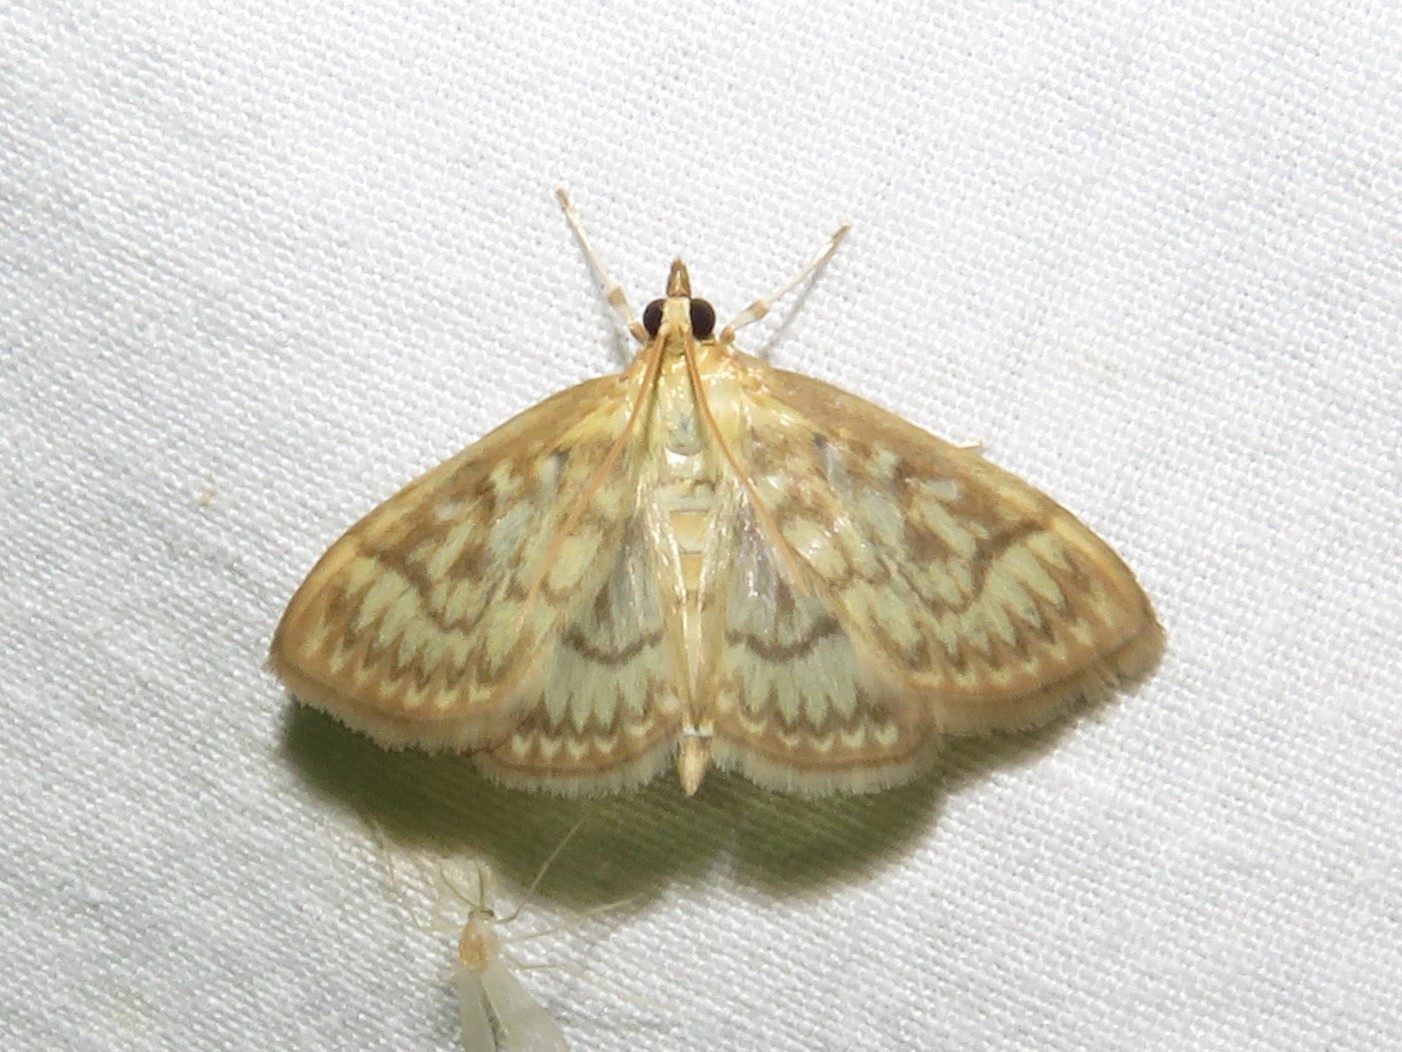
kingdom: Animalia
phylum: Arthropoda
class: Insecta
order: Lepidoptera
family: Crambidae
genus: Crocidophora
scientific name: Crocidophora serratissimalis
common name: Saw-toothed crocidophora moth
